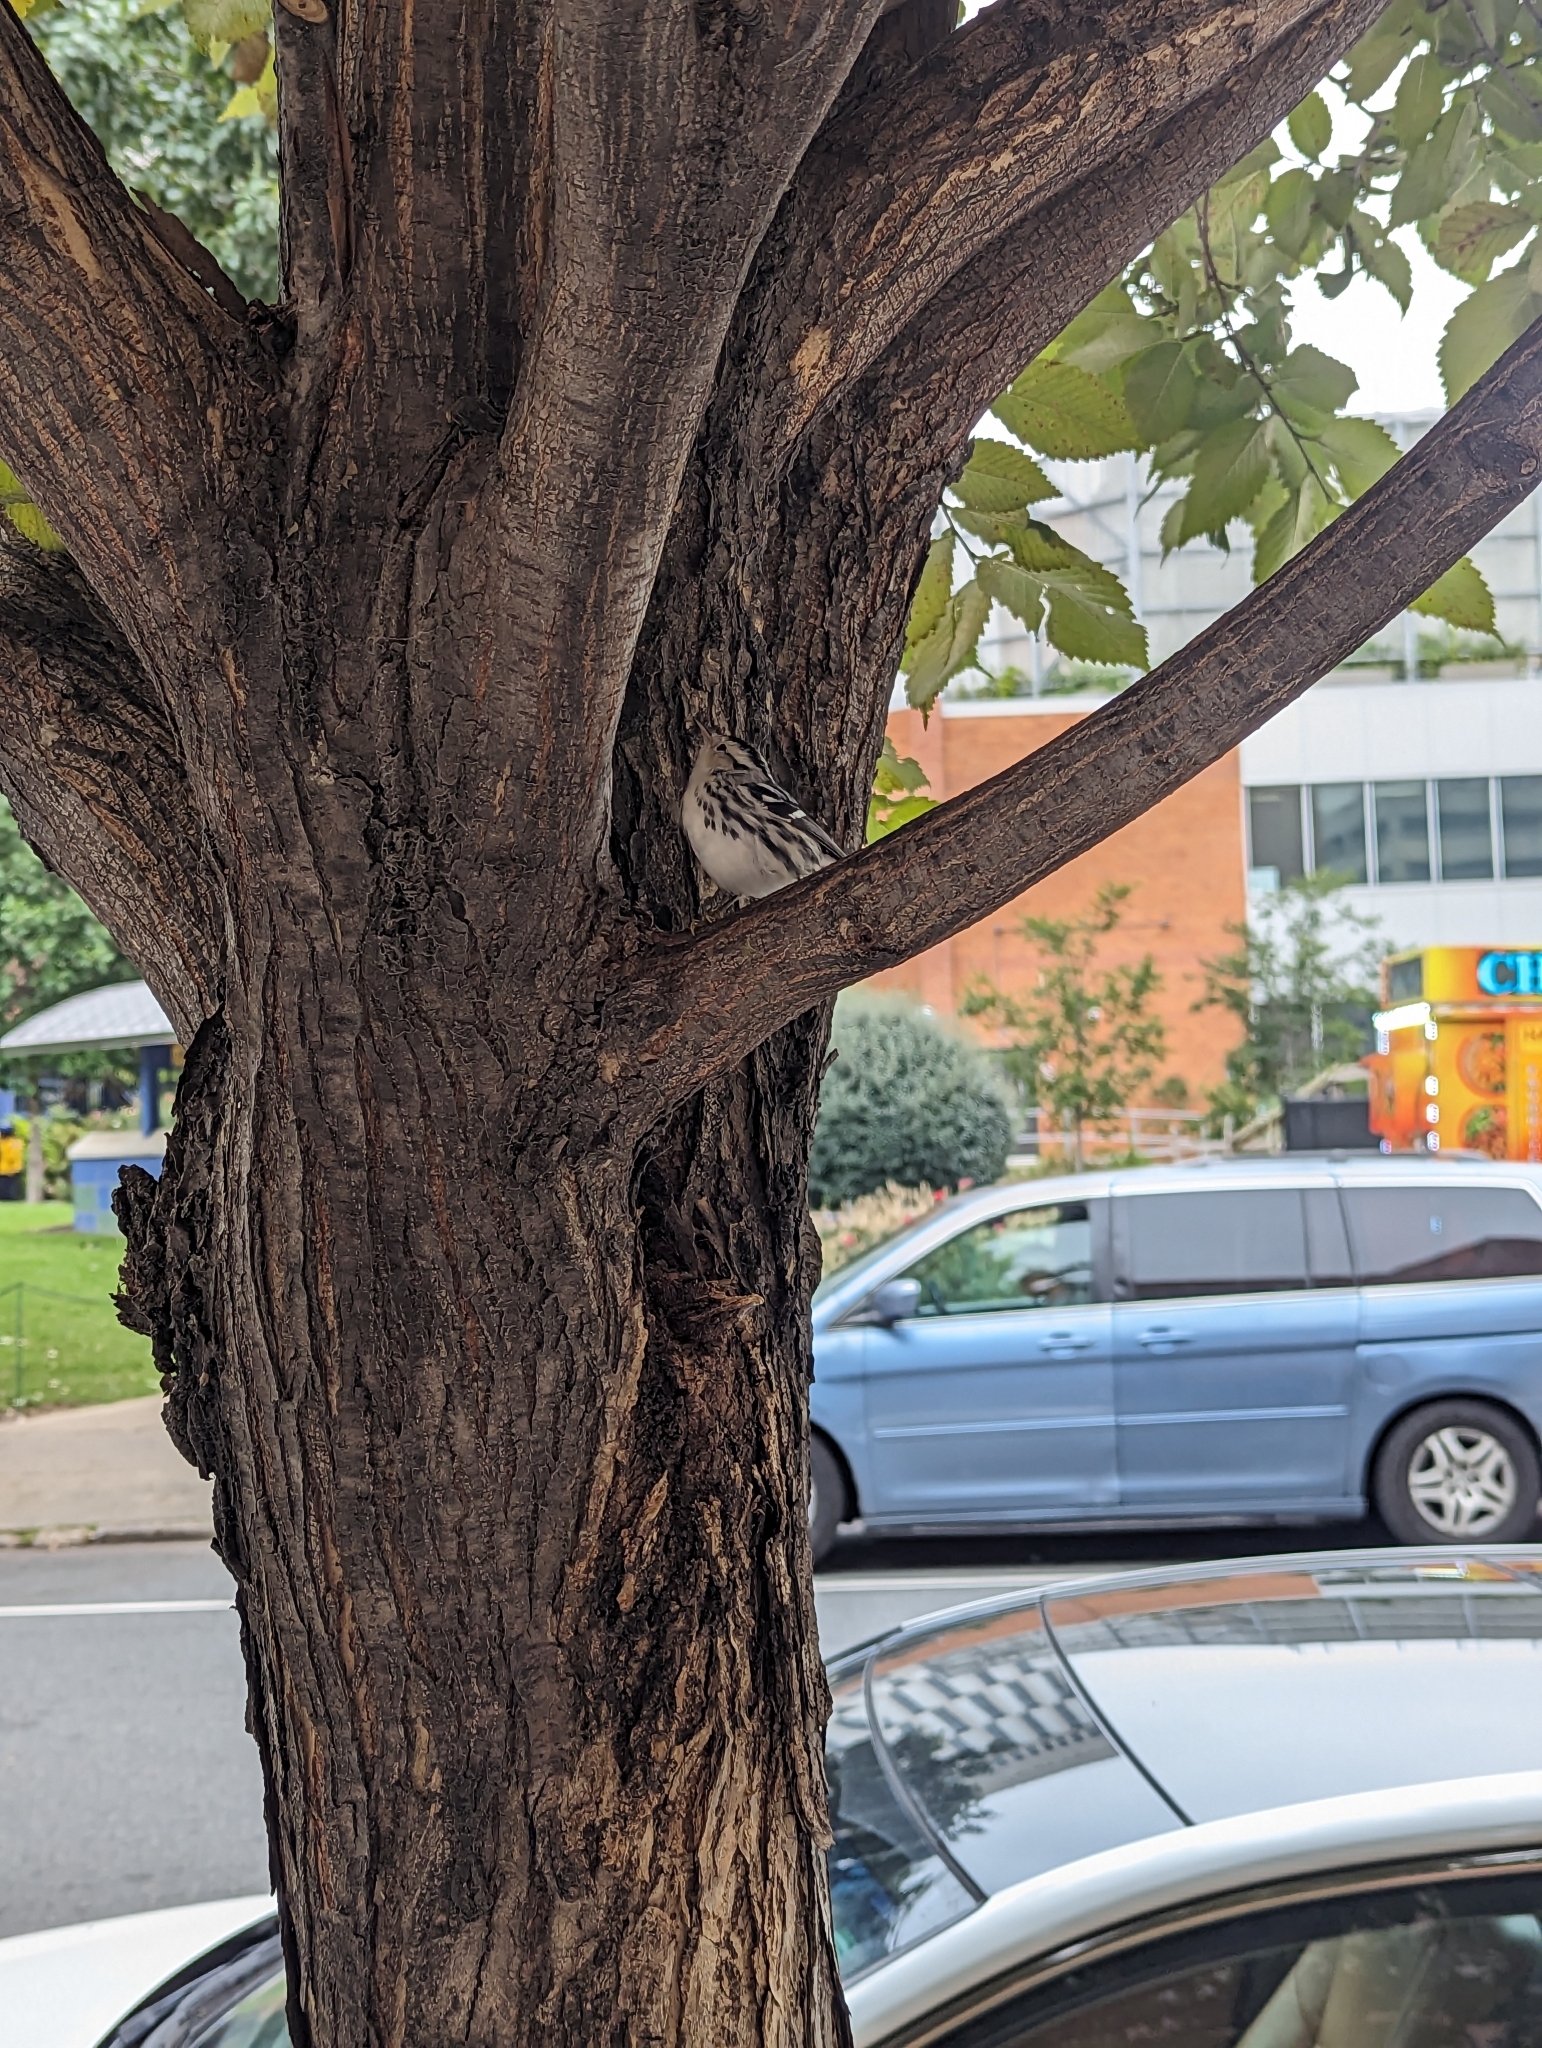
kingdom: Animalia
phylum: Chordata
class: Aves
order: Passeriformes
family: Parulidae
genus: Mniotilta
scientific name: Mniotilta varia
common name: Black-and-white warbler
